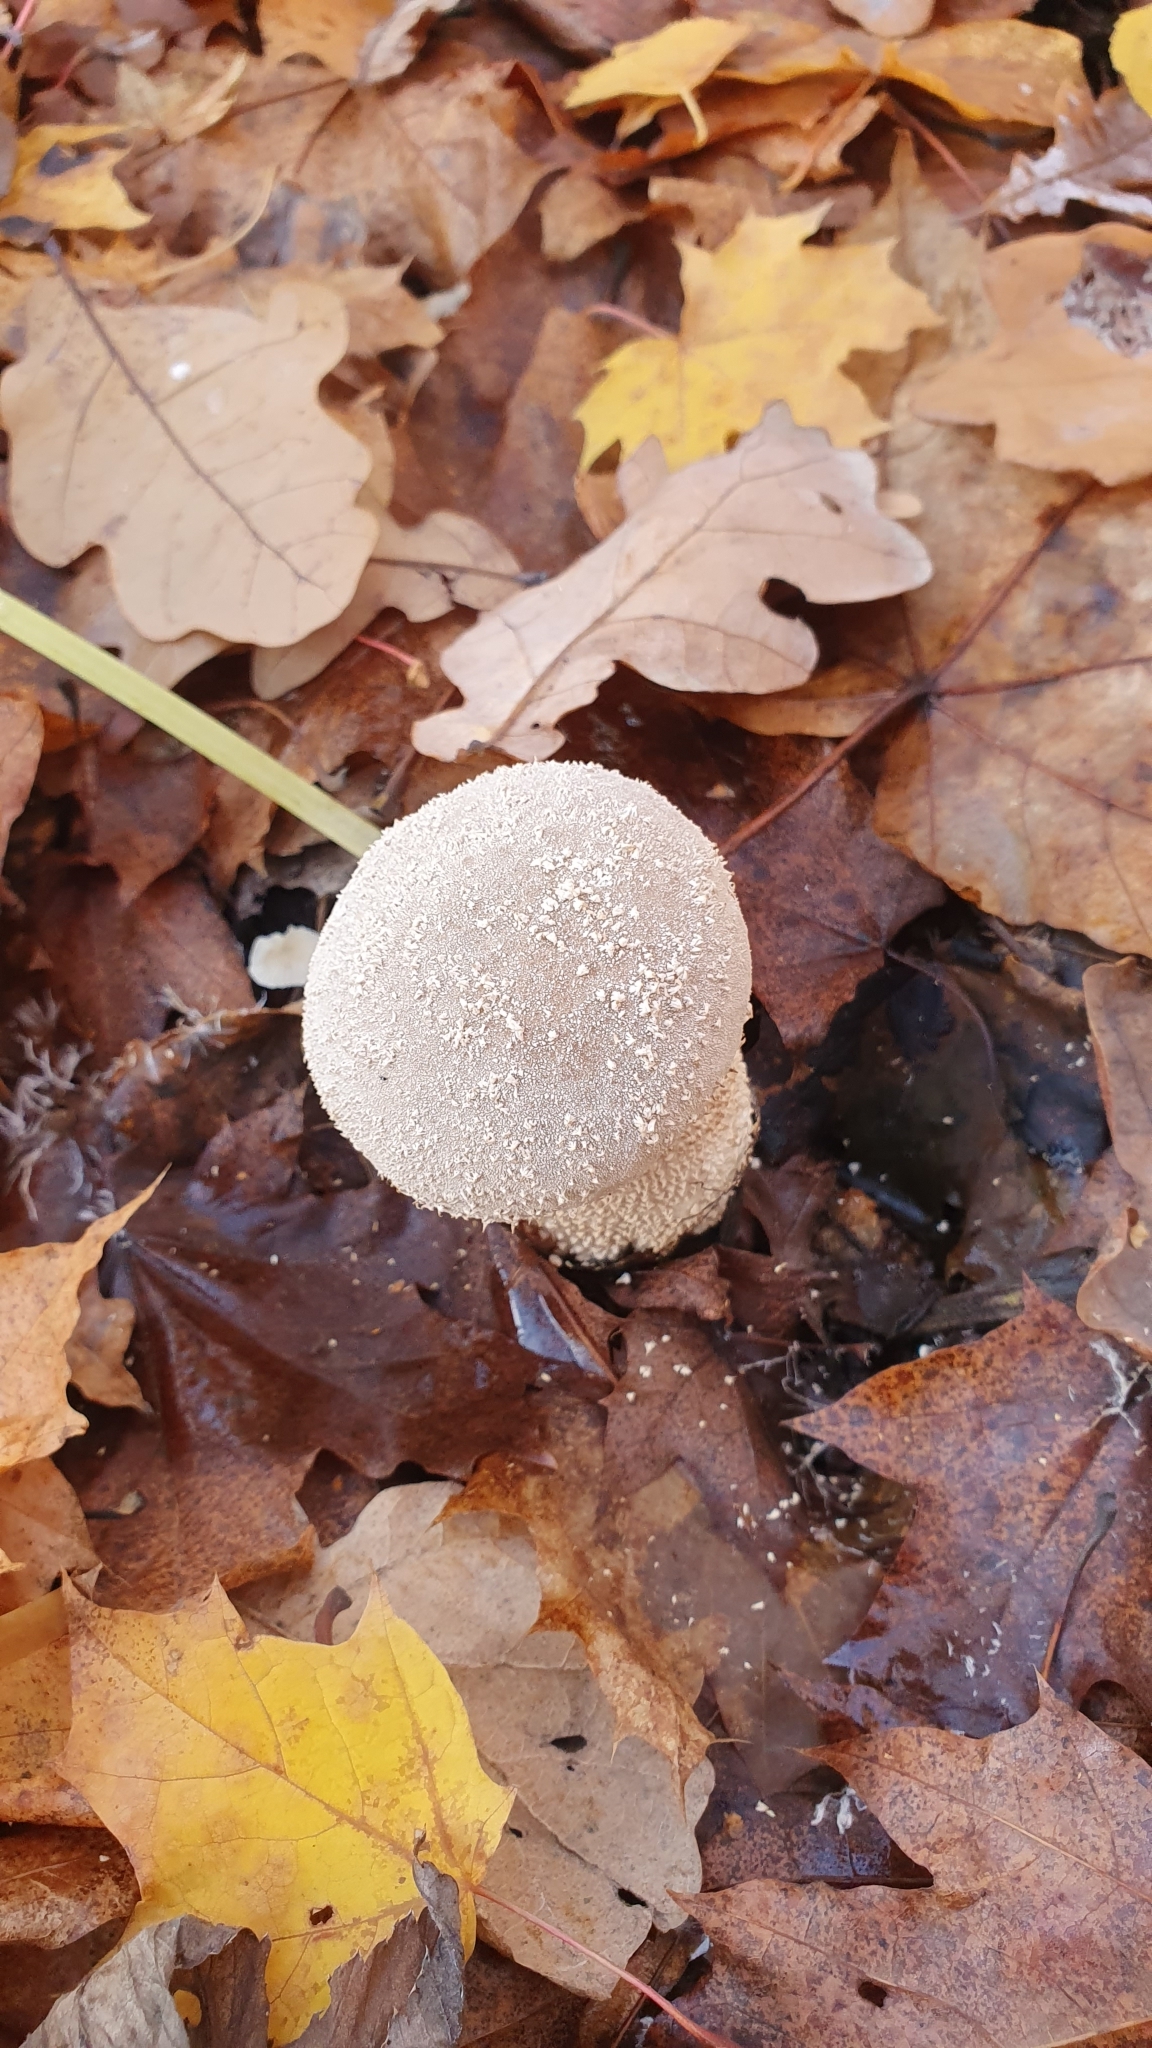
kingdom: Fungi
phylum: Basidiomycota
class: Agaricomycetes
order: Agaricales
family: Lycoperdaceae
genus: Lycoperdon
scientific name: Lycoperdon excipuliforme
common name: Pestle puffball
